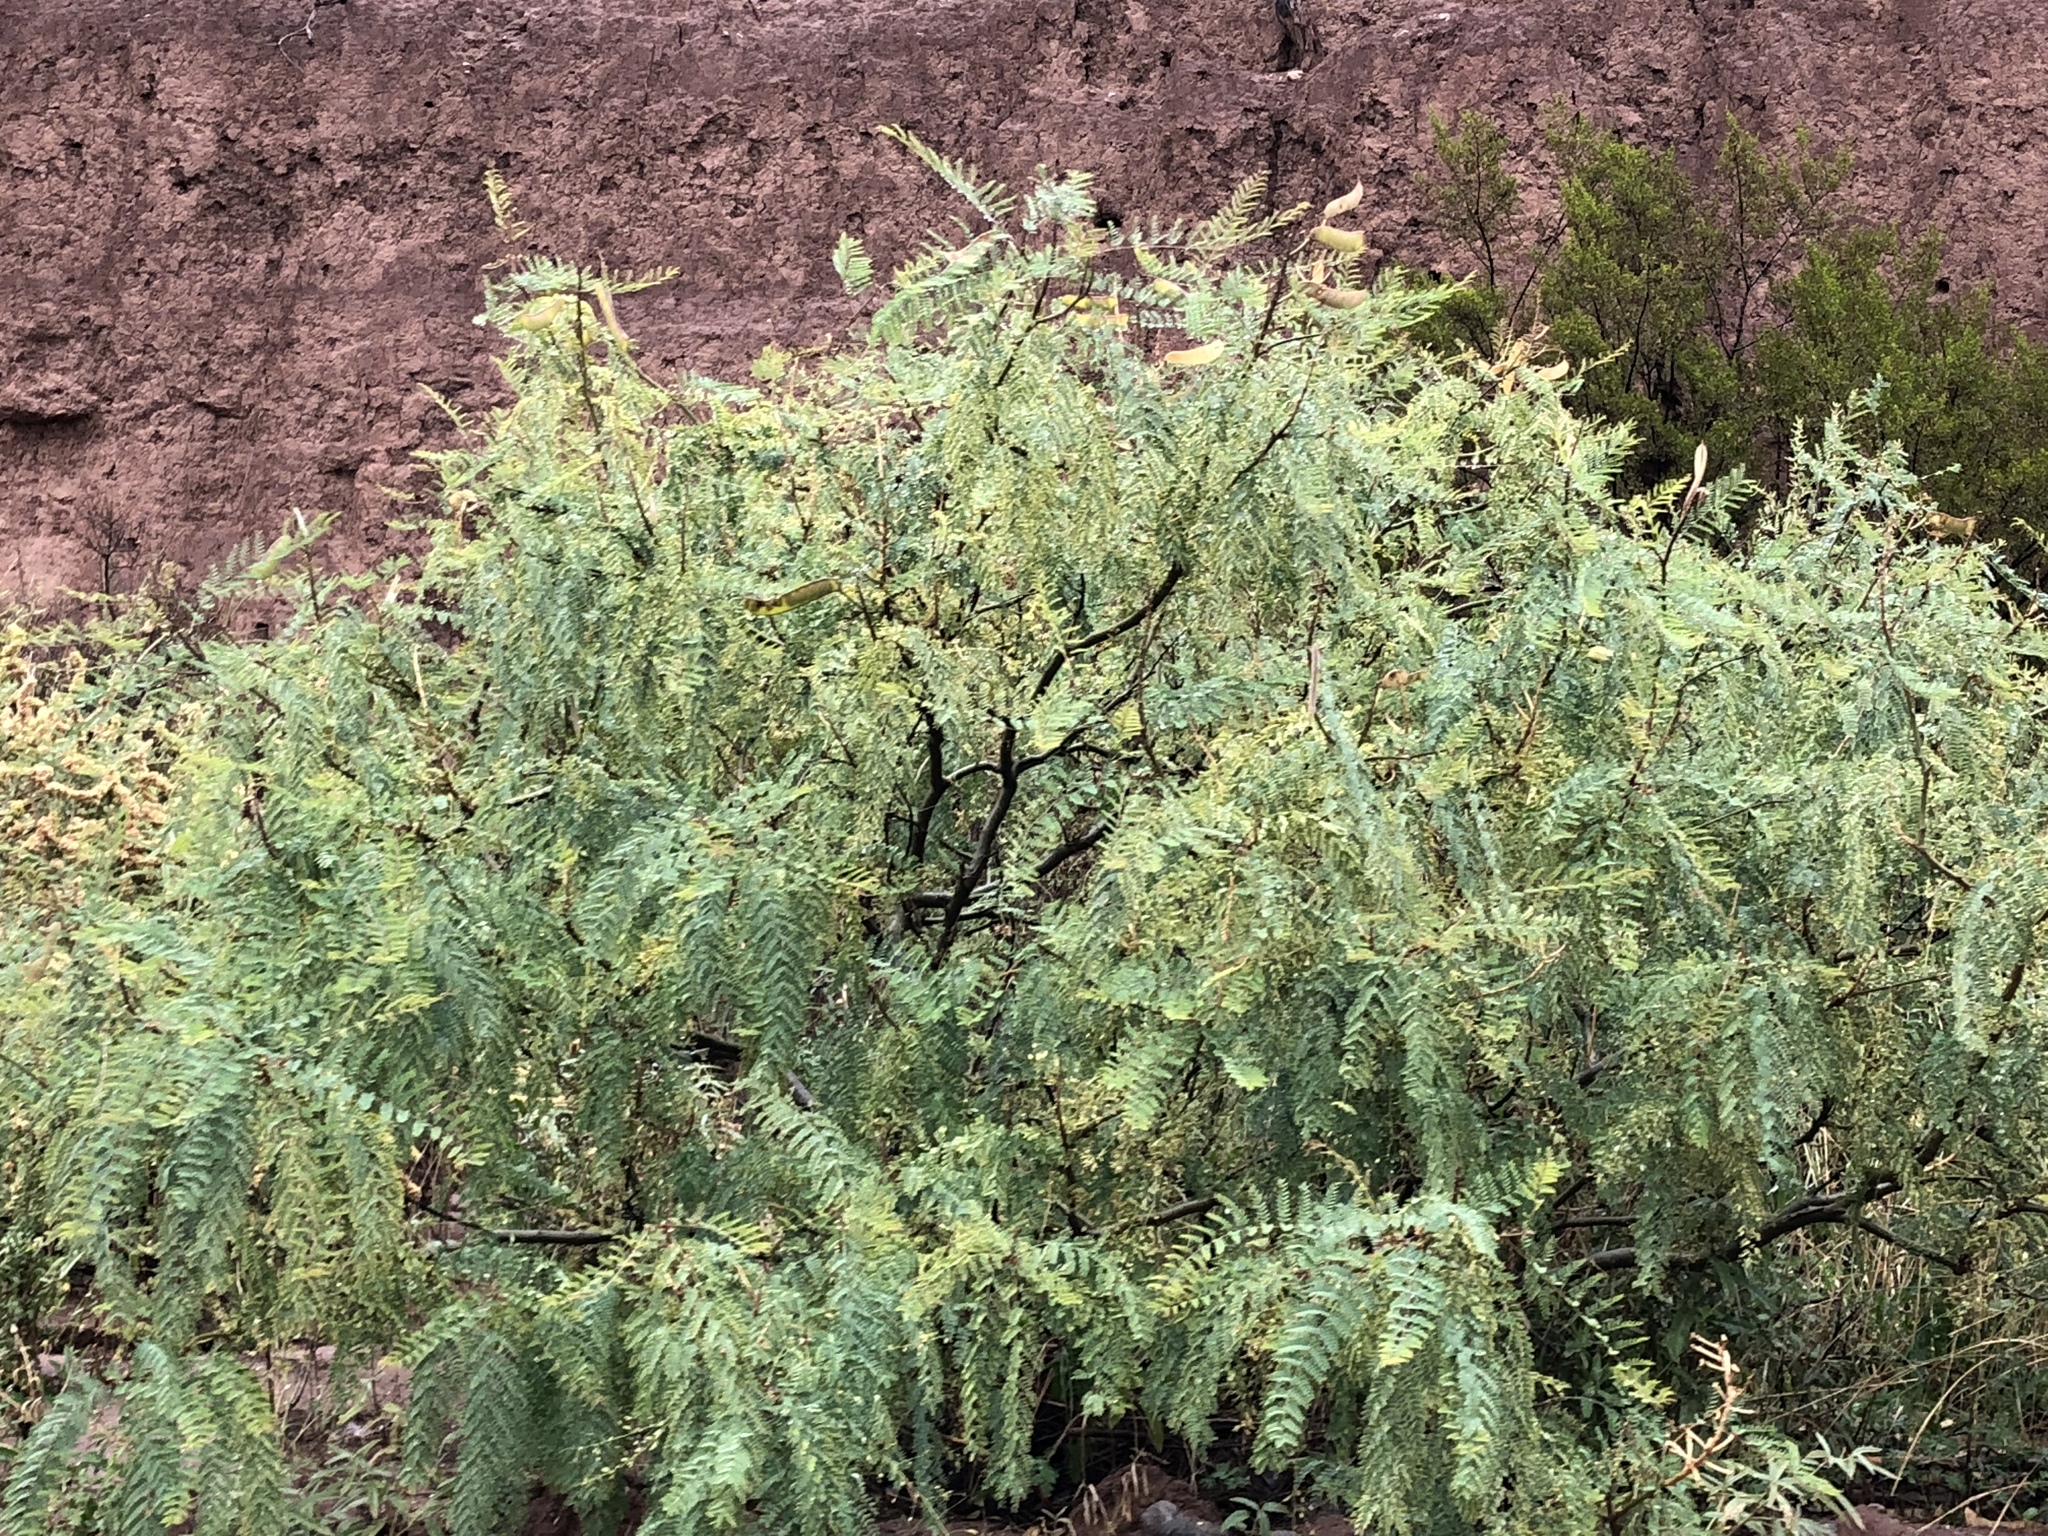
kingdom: Plantae
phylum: Tracheophyta
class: Magnoliopsida
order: Fabales
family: Fabaceae
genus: Prosopis
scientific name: Prosopis glandulosa
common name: Honey mesquite
